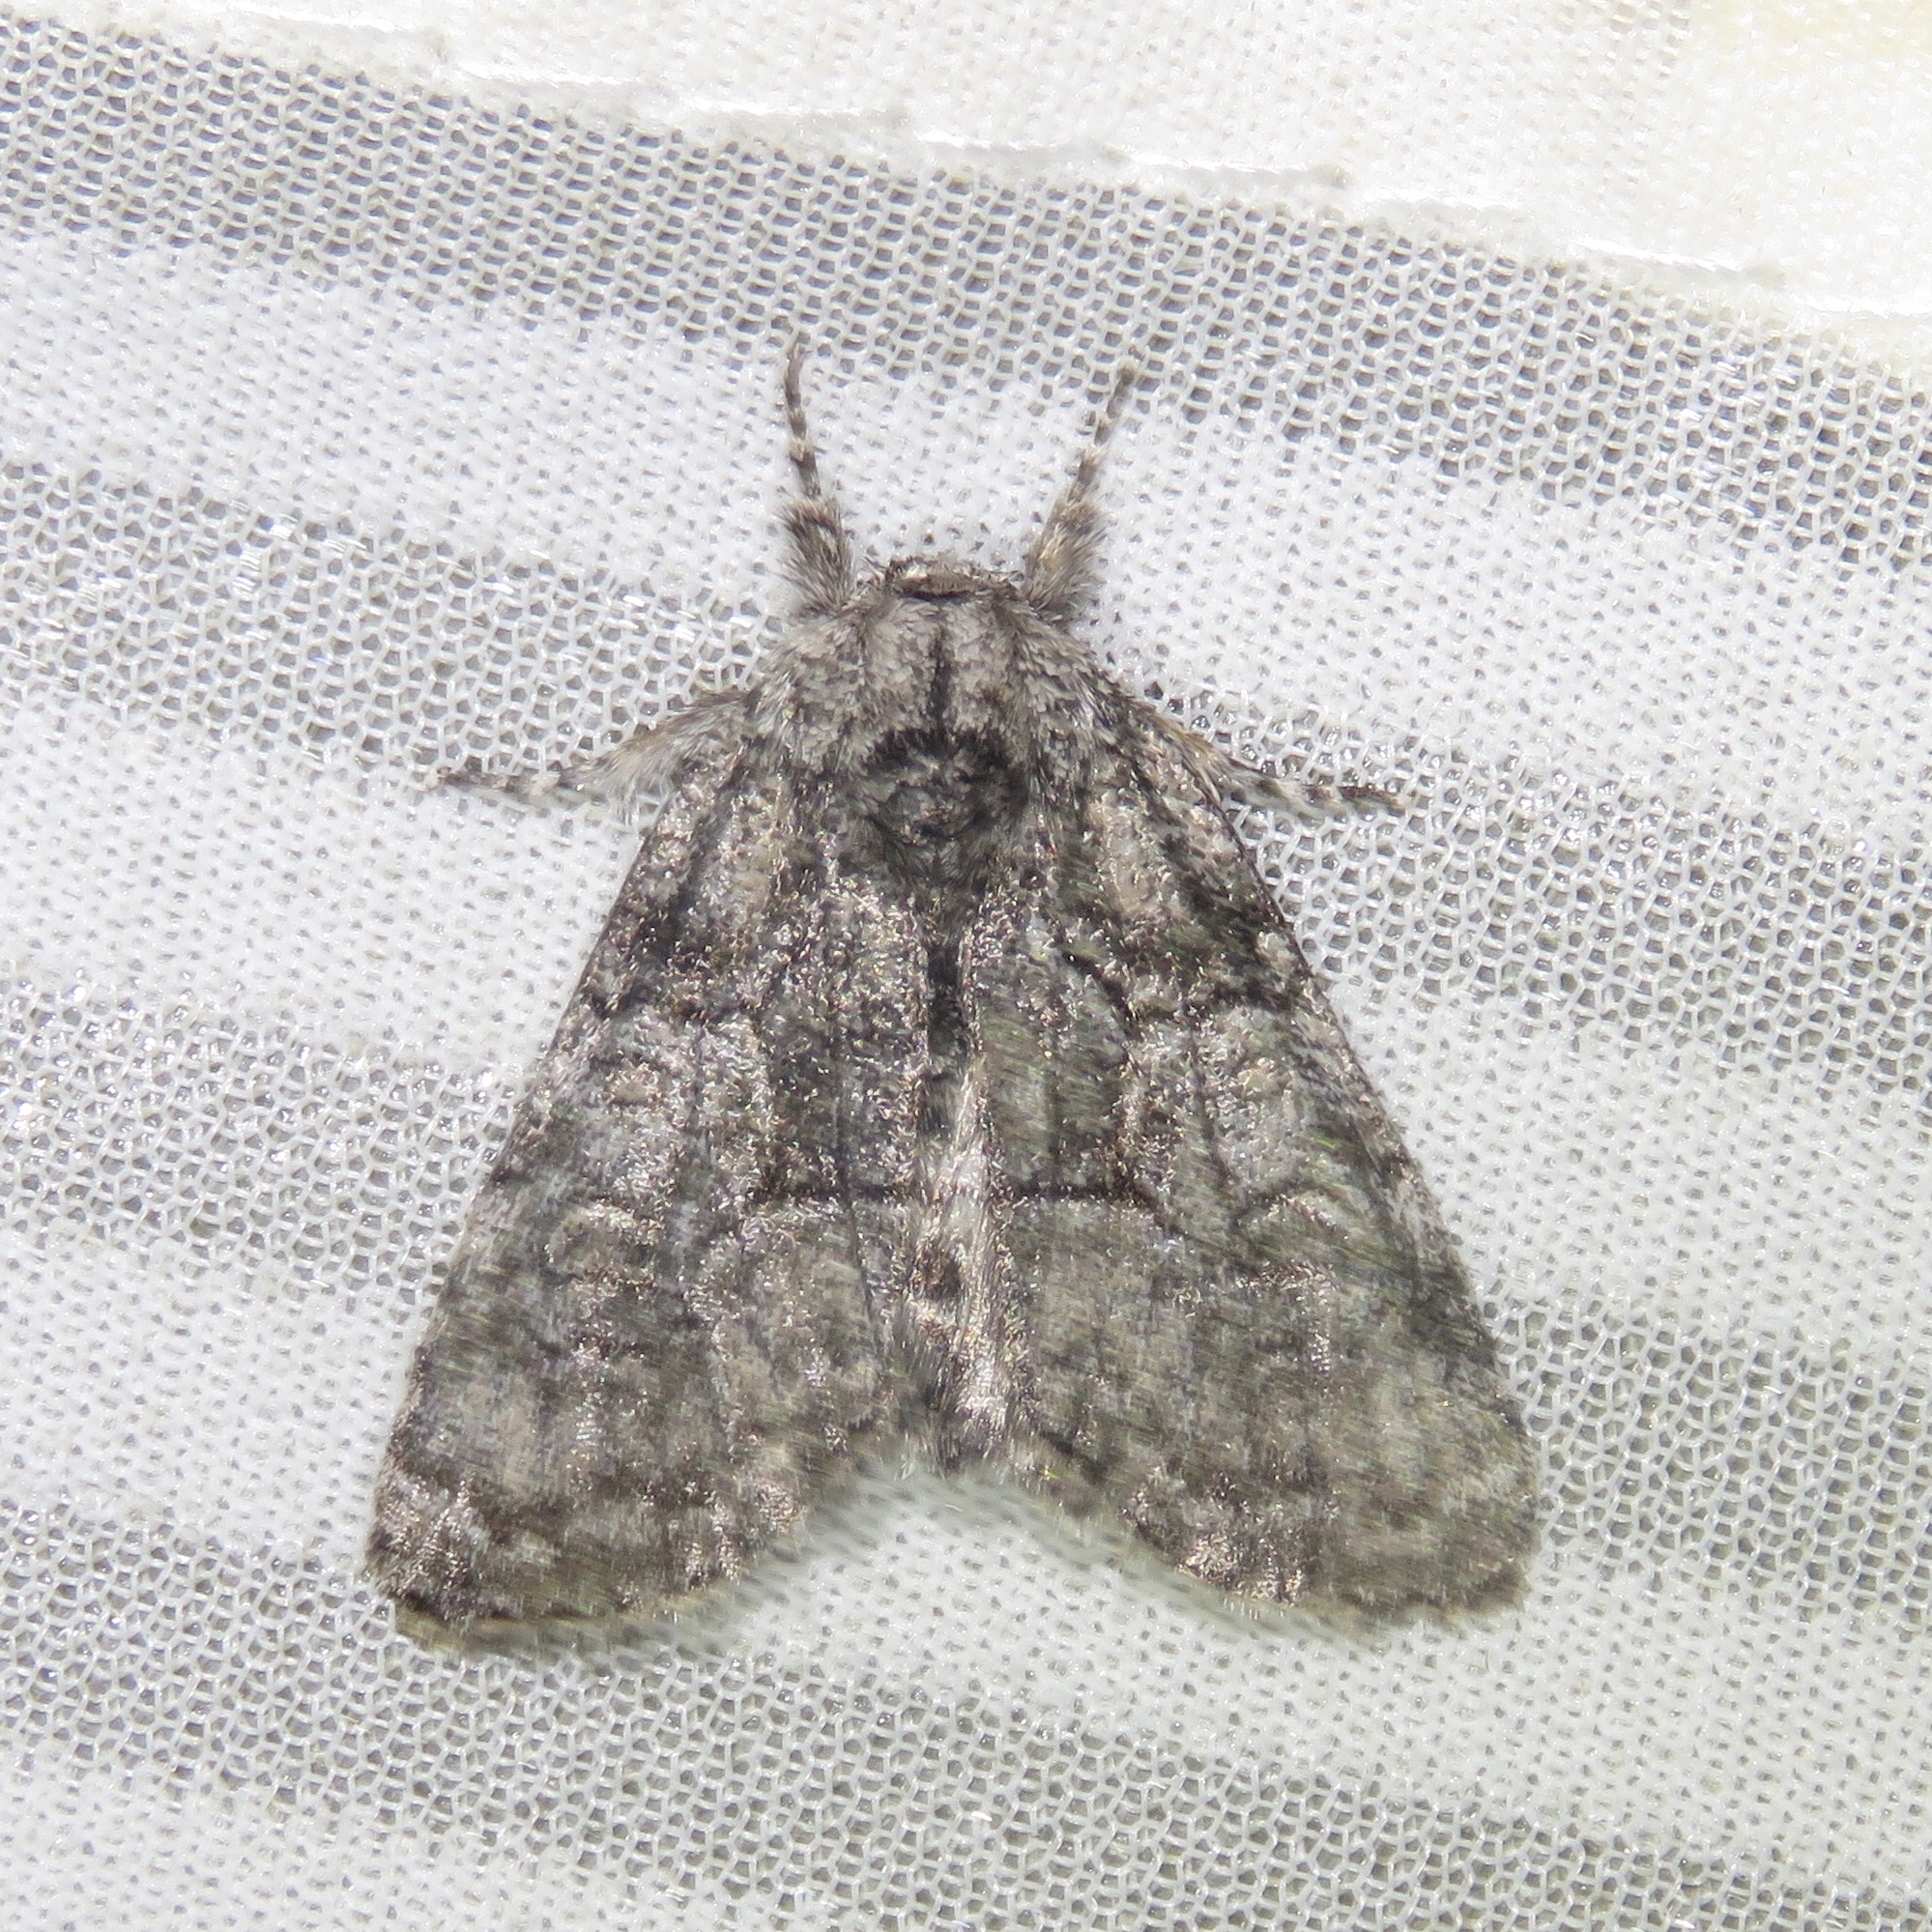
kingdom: Animalia
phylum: Arthropoda
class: Insecta
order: Lepidoptera
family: Noctuidae
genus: Raphia
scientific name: Raphia frater
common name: Brother
